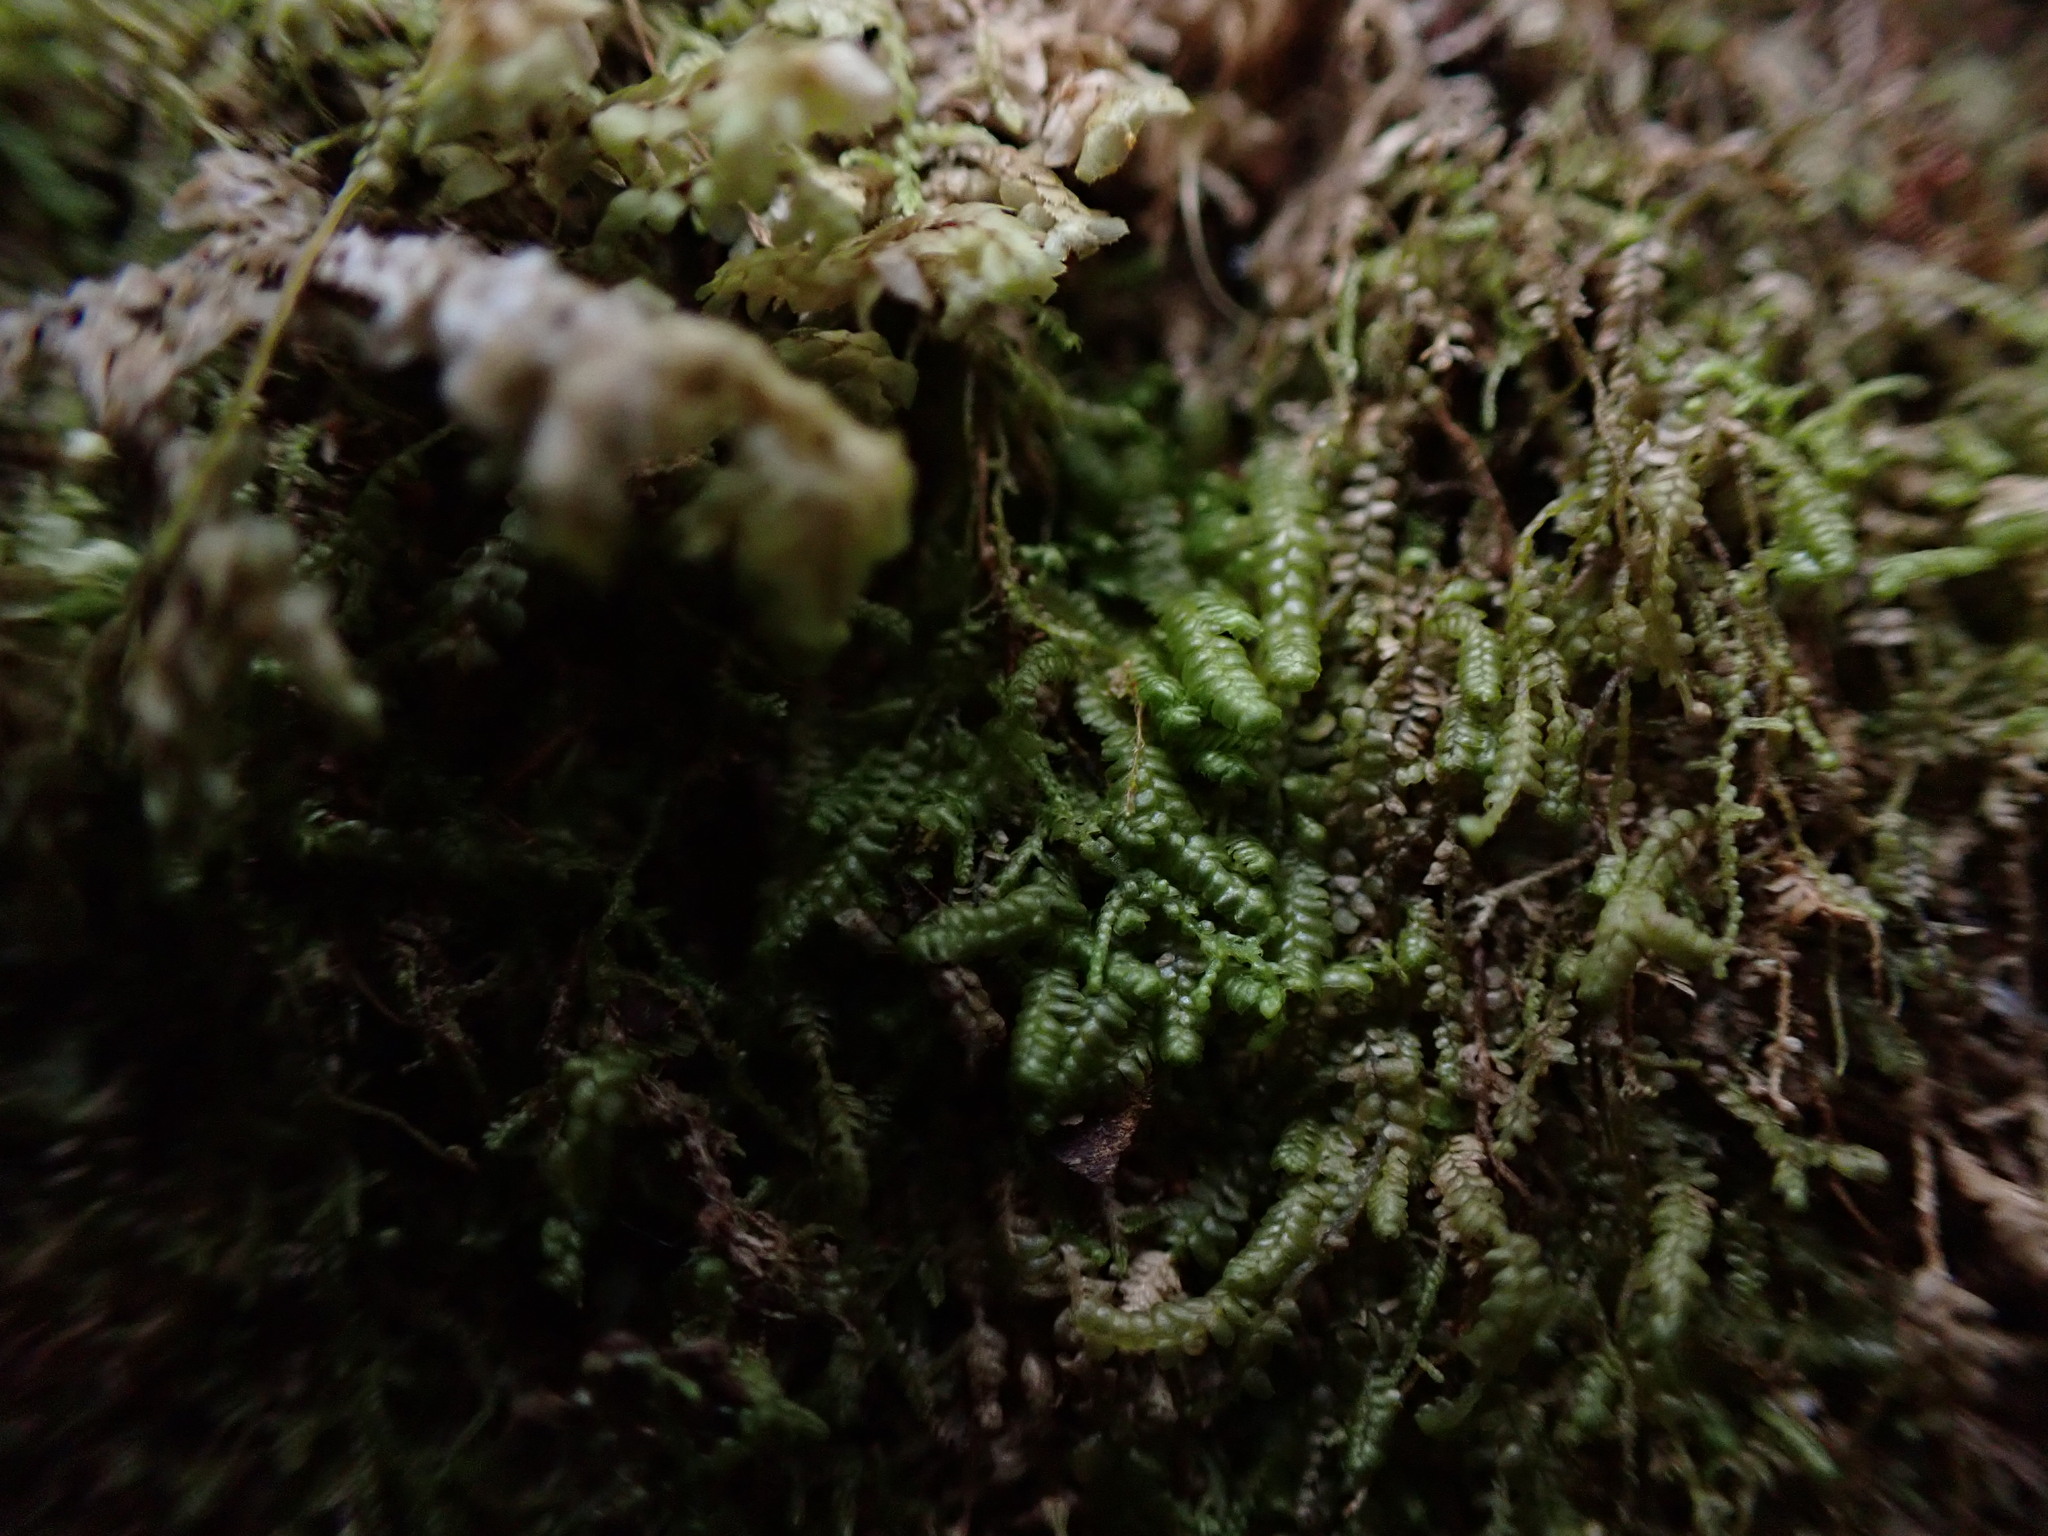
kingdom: Plantae
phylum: Marchantiophyta
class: Jungermanniopsida
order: Jungermanniales
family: Lepidoziaceae
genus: Bazzania
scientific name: Bazzania denudata
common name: Naked whipwort
